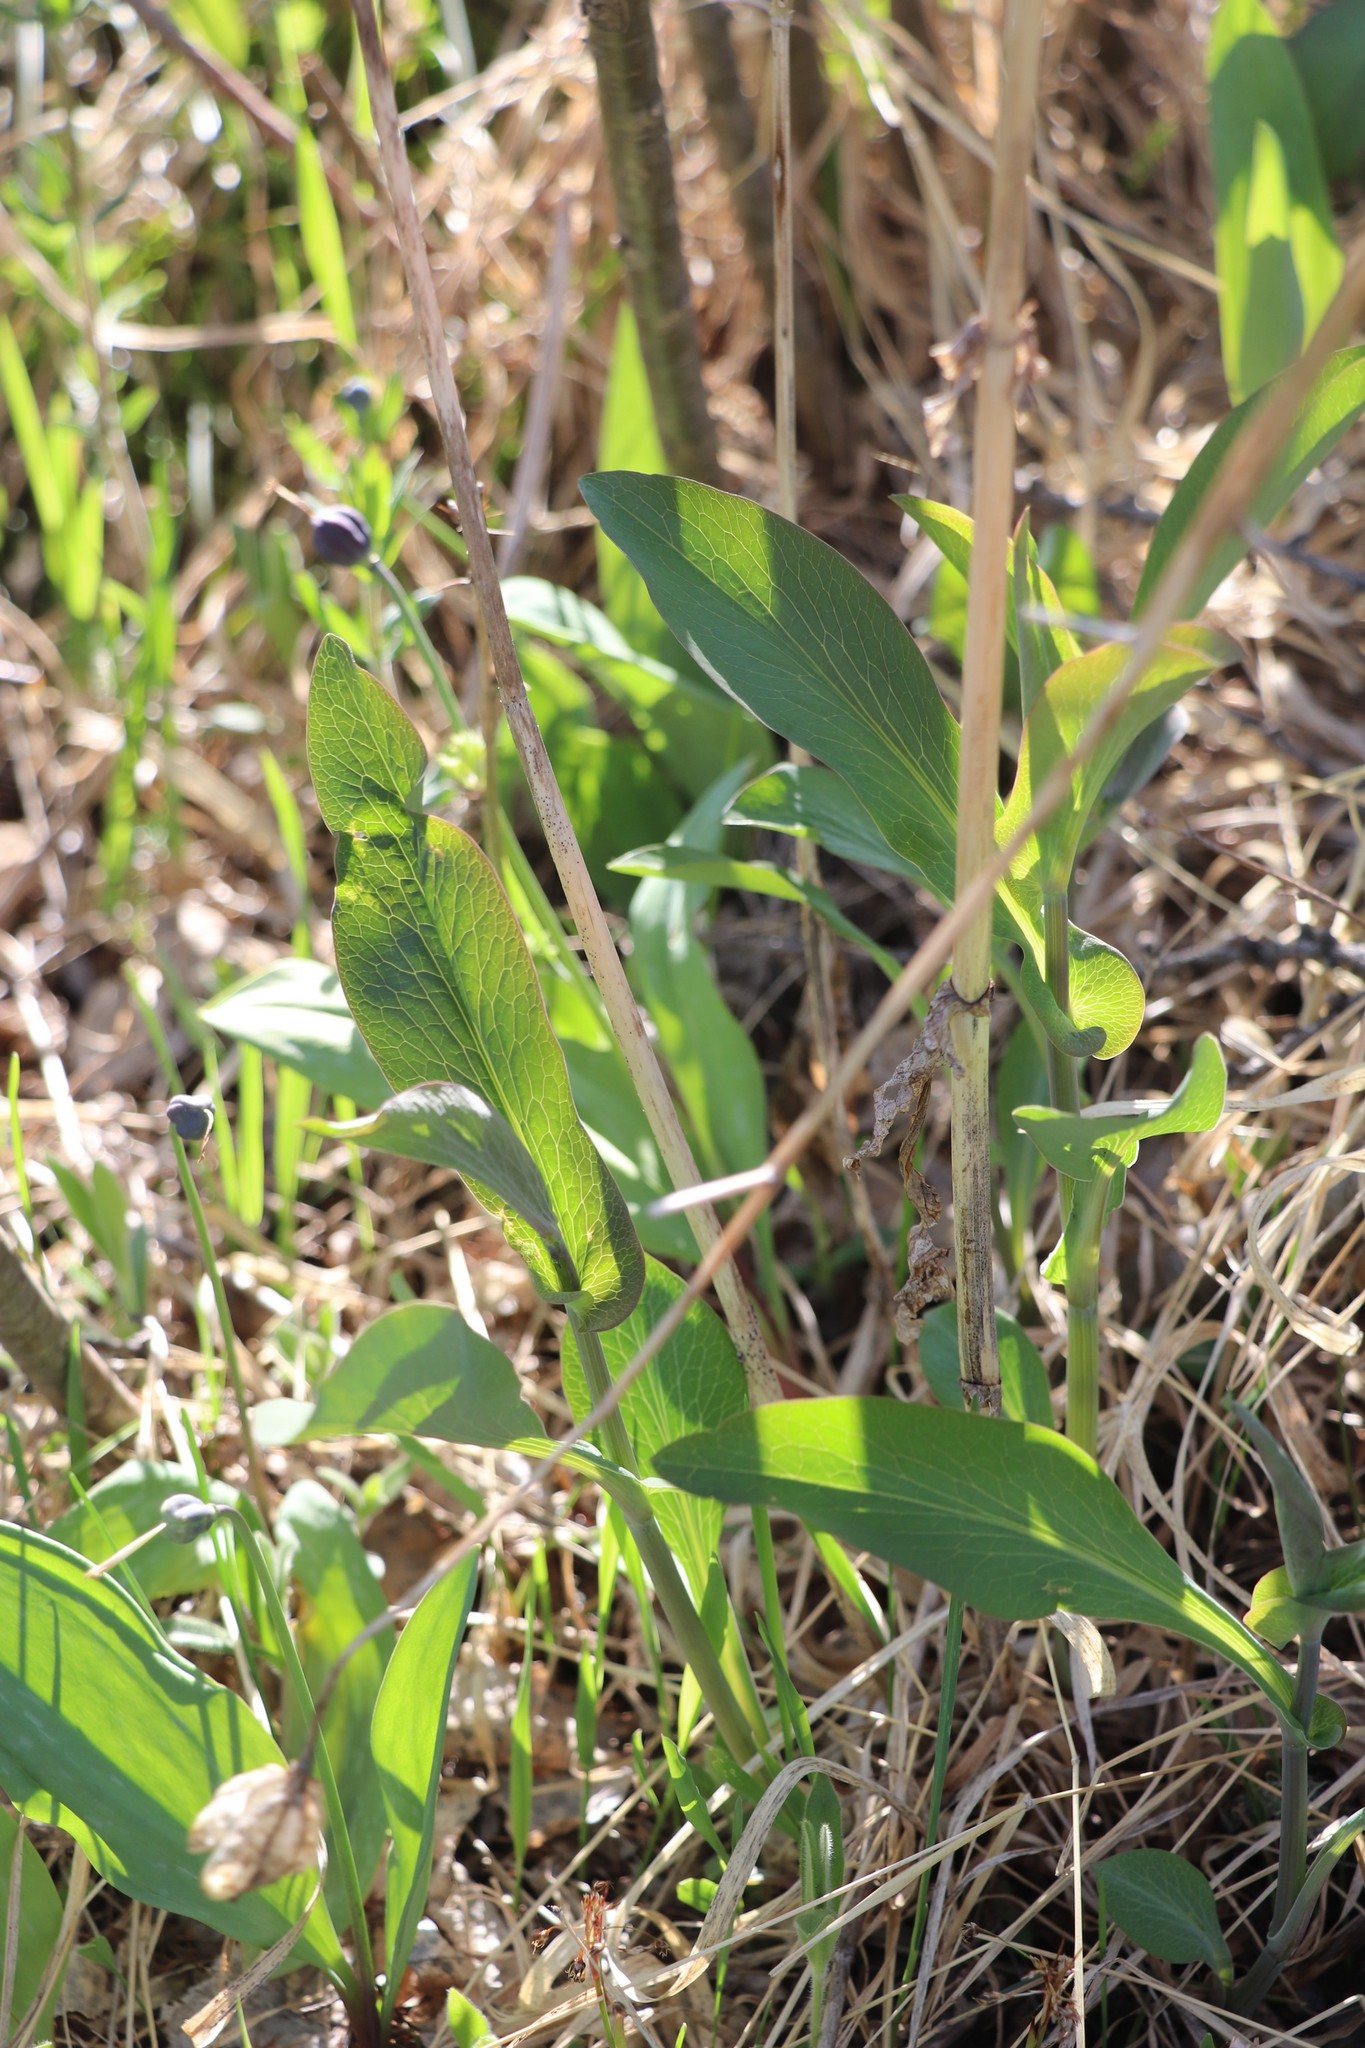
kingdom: Plantae
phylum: Tracheophyta
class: Magnoliopsida
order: Apiales
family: Apiaceae
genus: Bupleurum
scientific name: Bupleurum aureum
